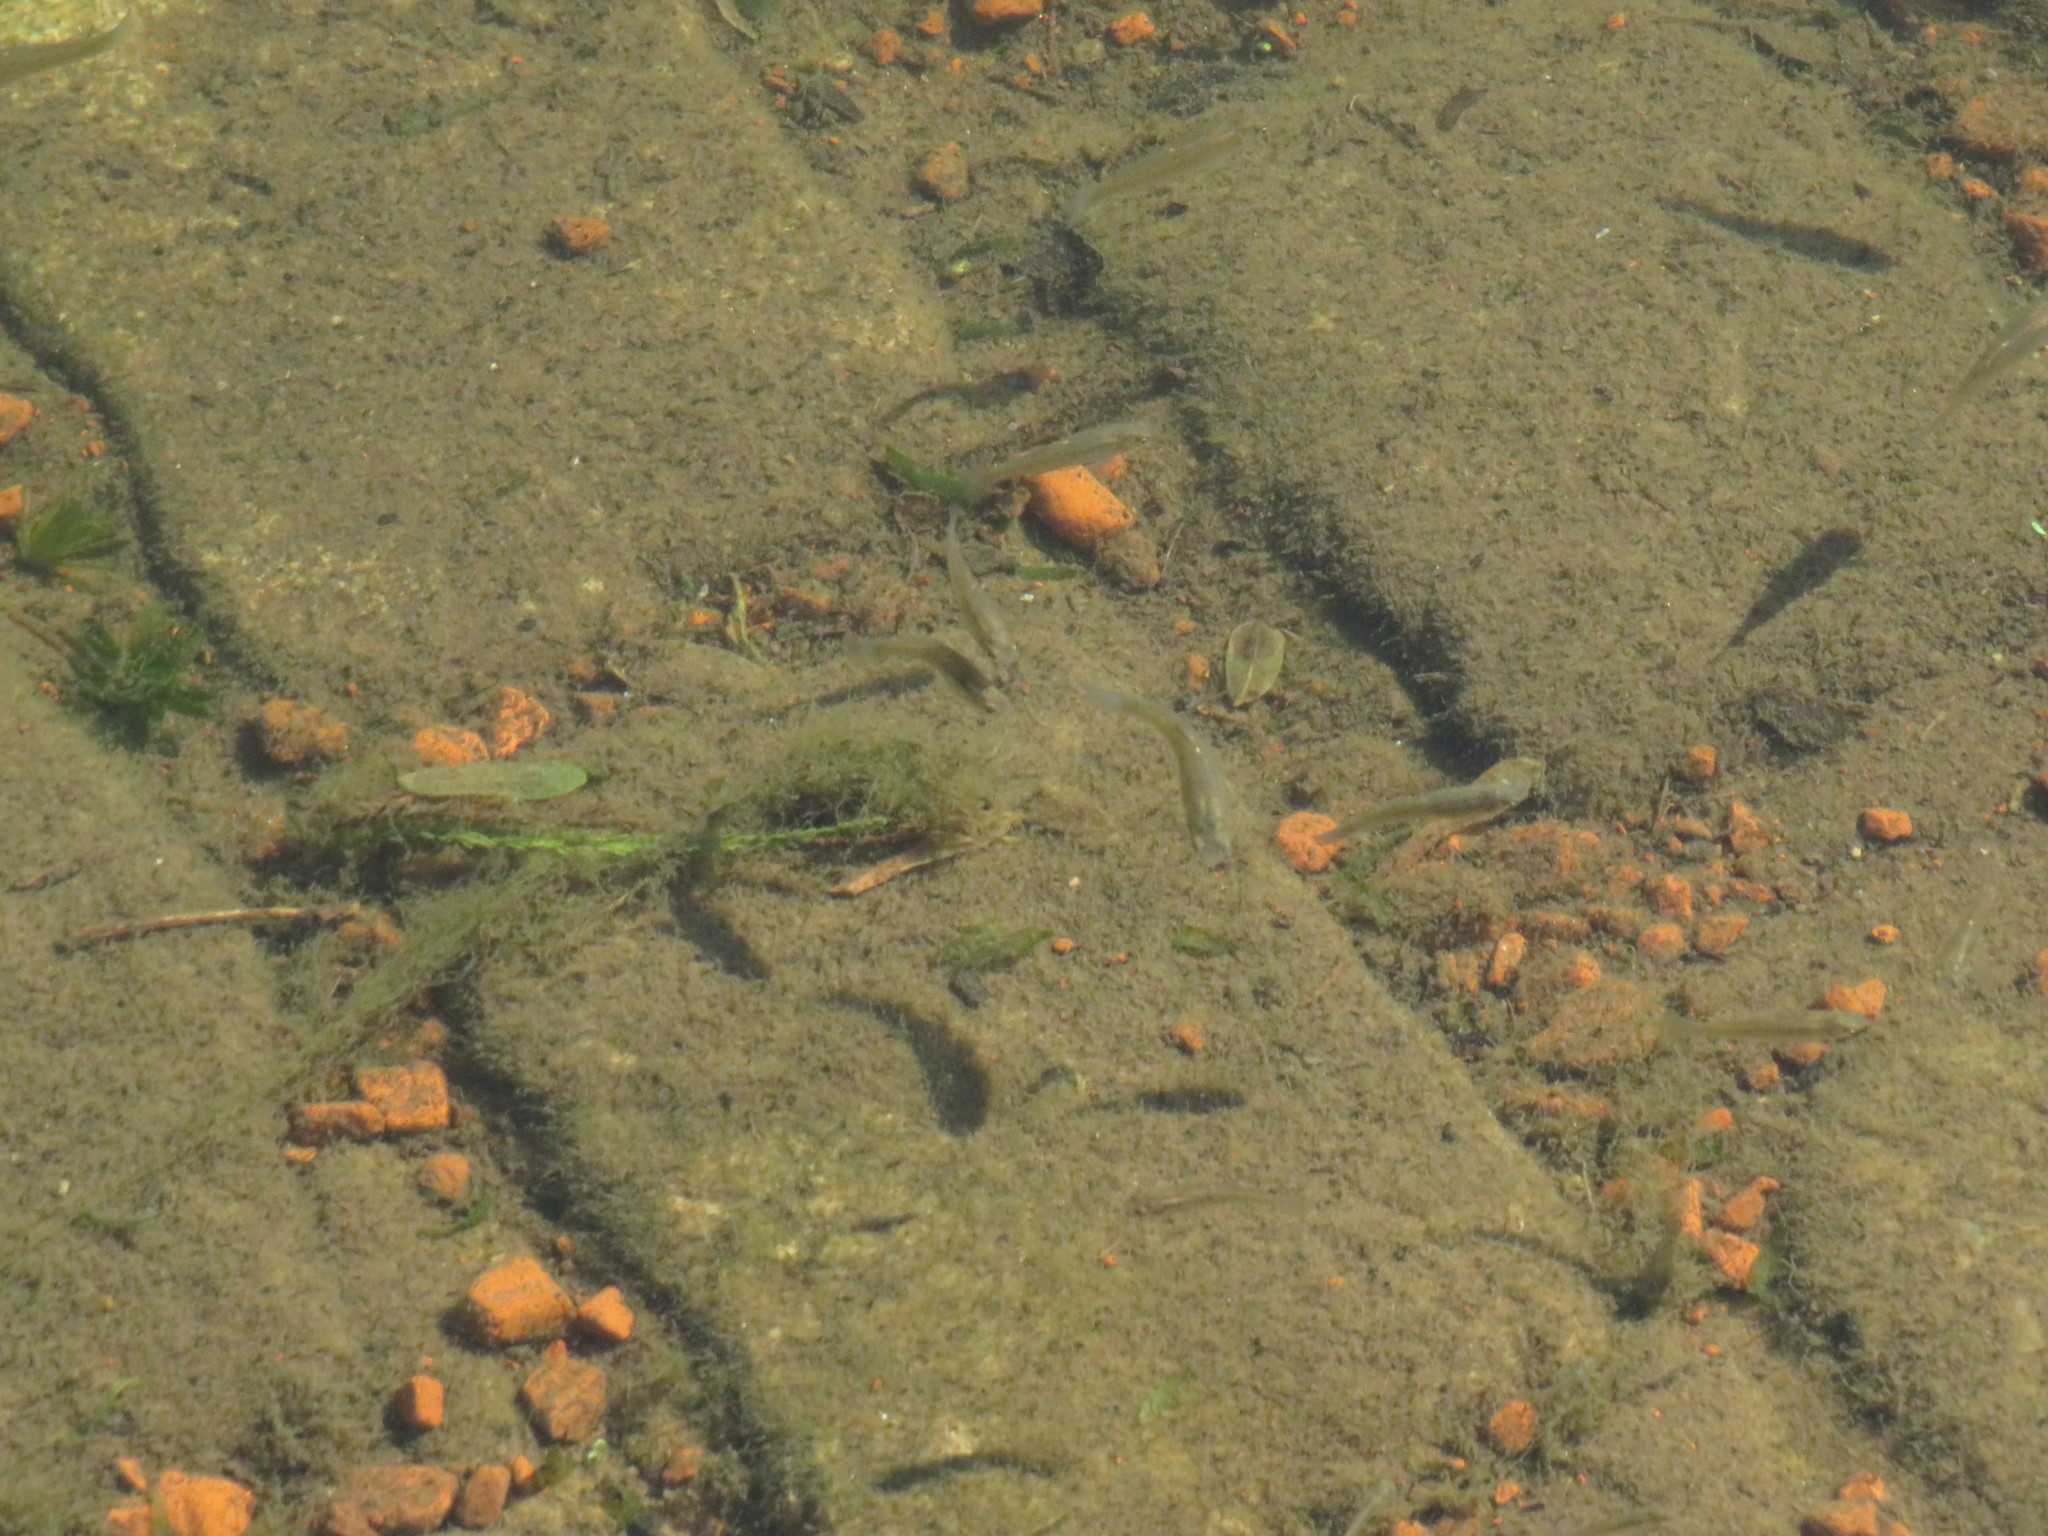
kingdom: Animalia
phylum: Chordata
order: Cyprinodontiformes
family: Anablepidae
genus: Jenynsia
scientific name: Jenynsia lineata
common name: Onesided livebearer
